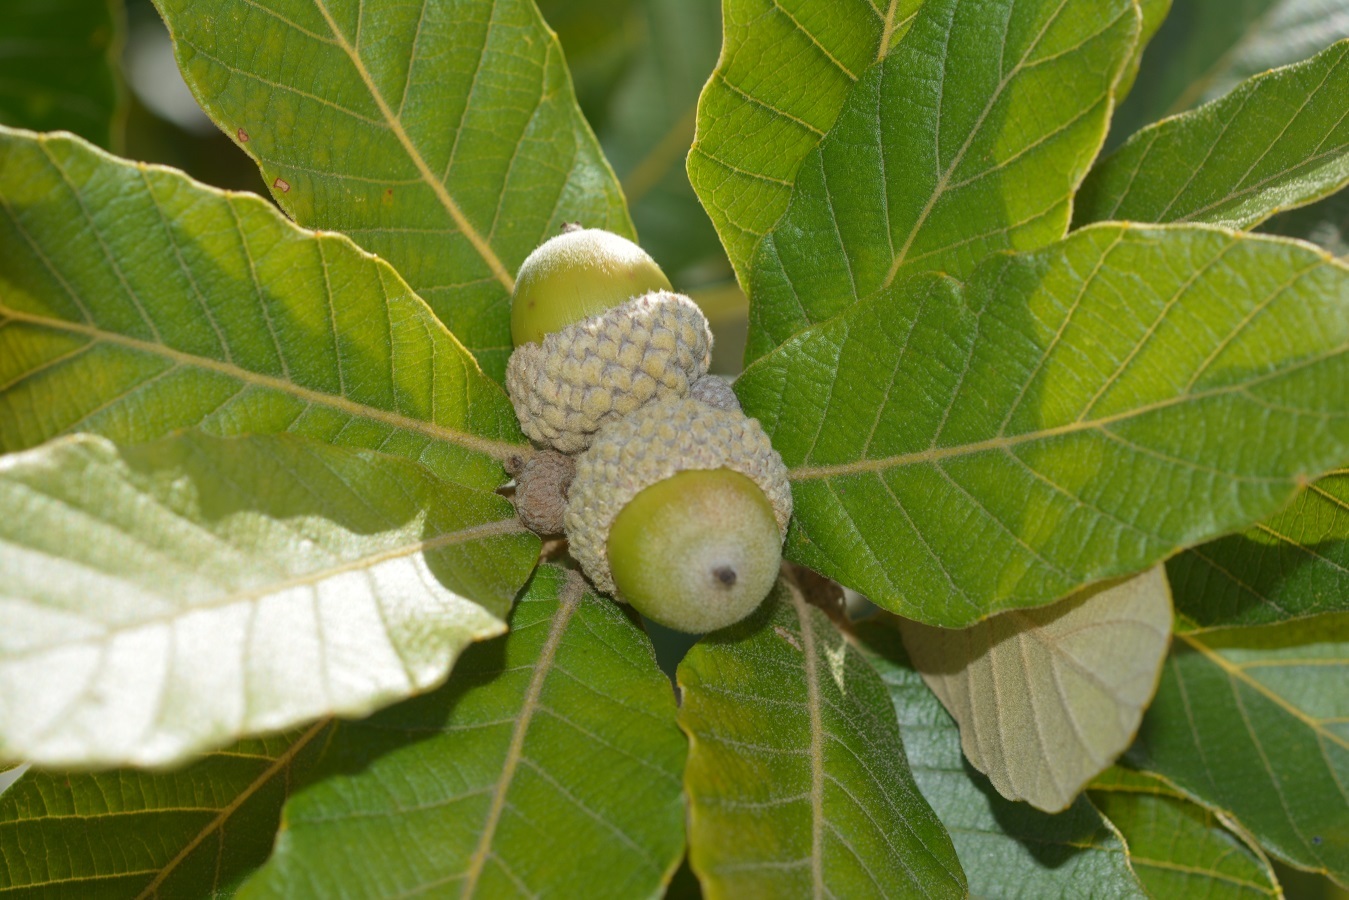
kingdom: Plantae
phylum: Tracheophyta
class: Magnoliopsida
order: Fagales
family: Fagaceae
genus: Quercus
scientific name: Quercus purulhana
